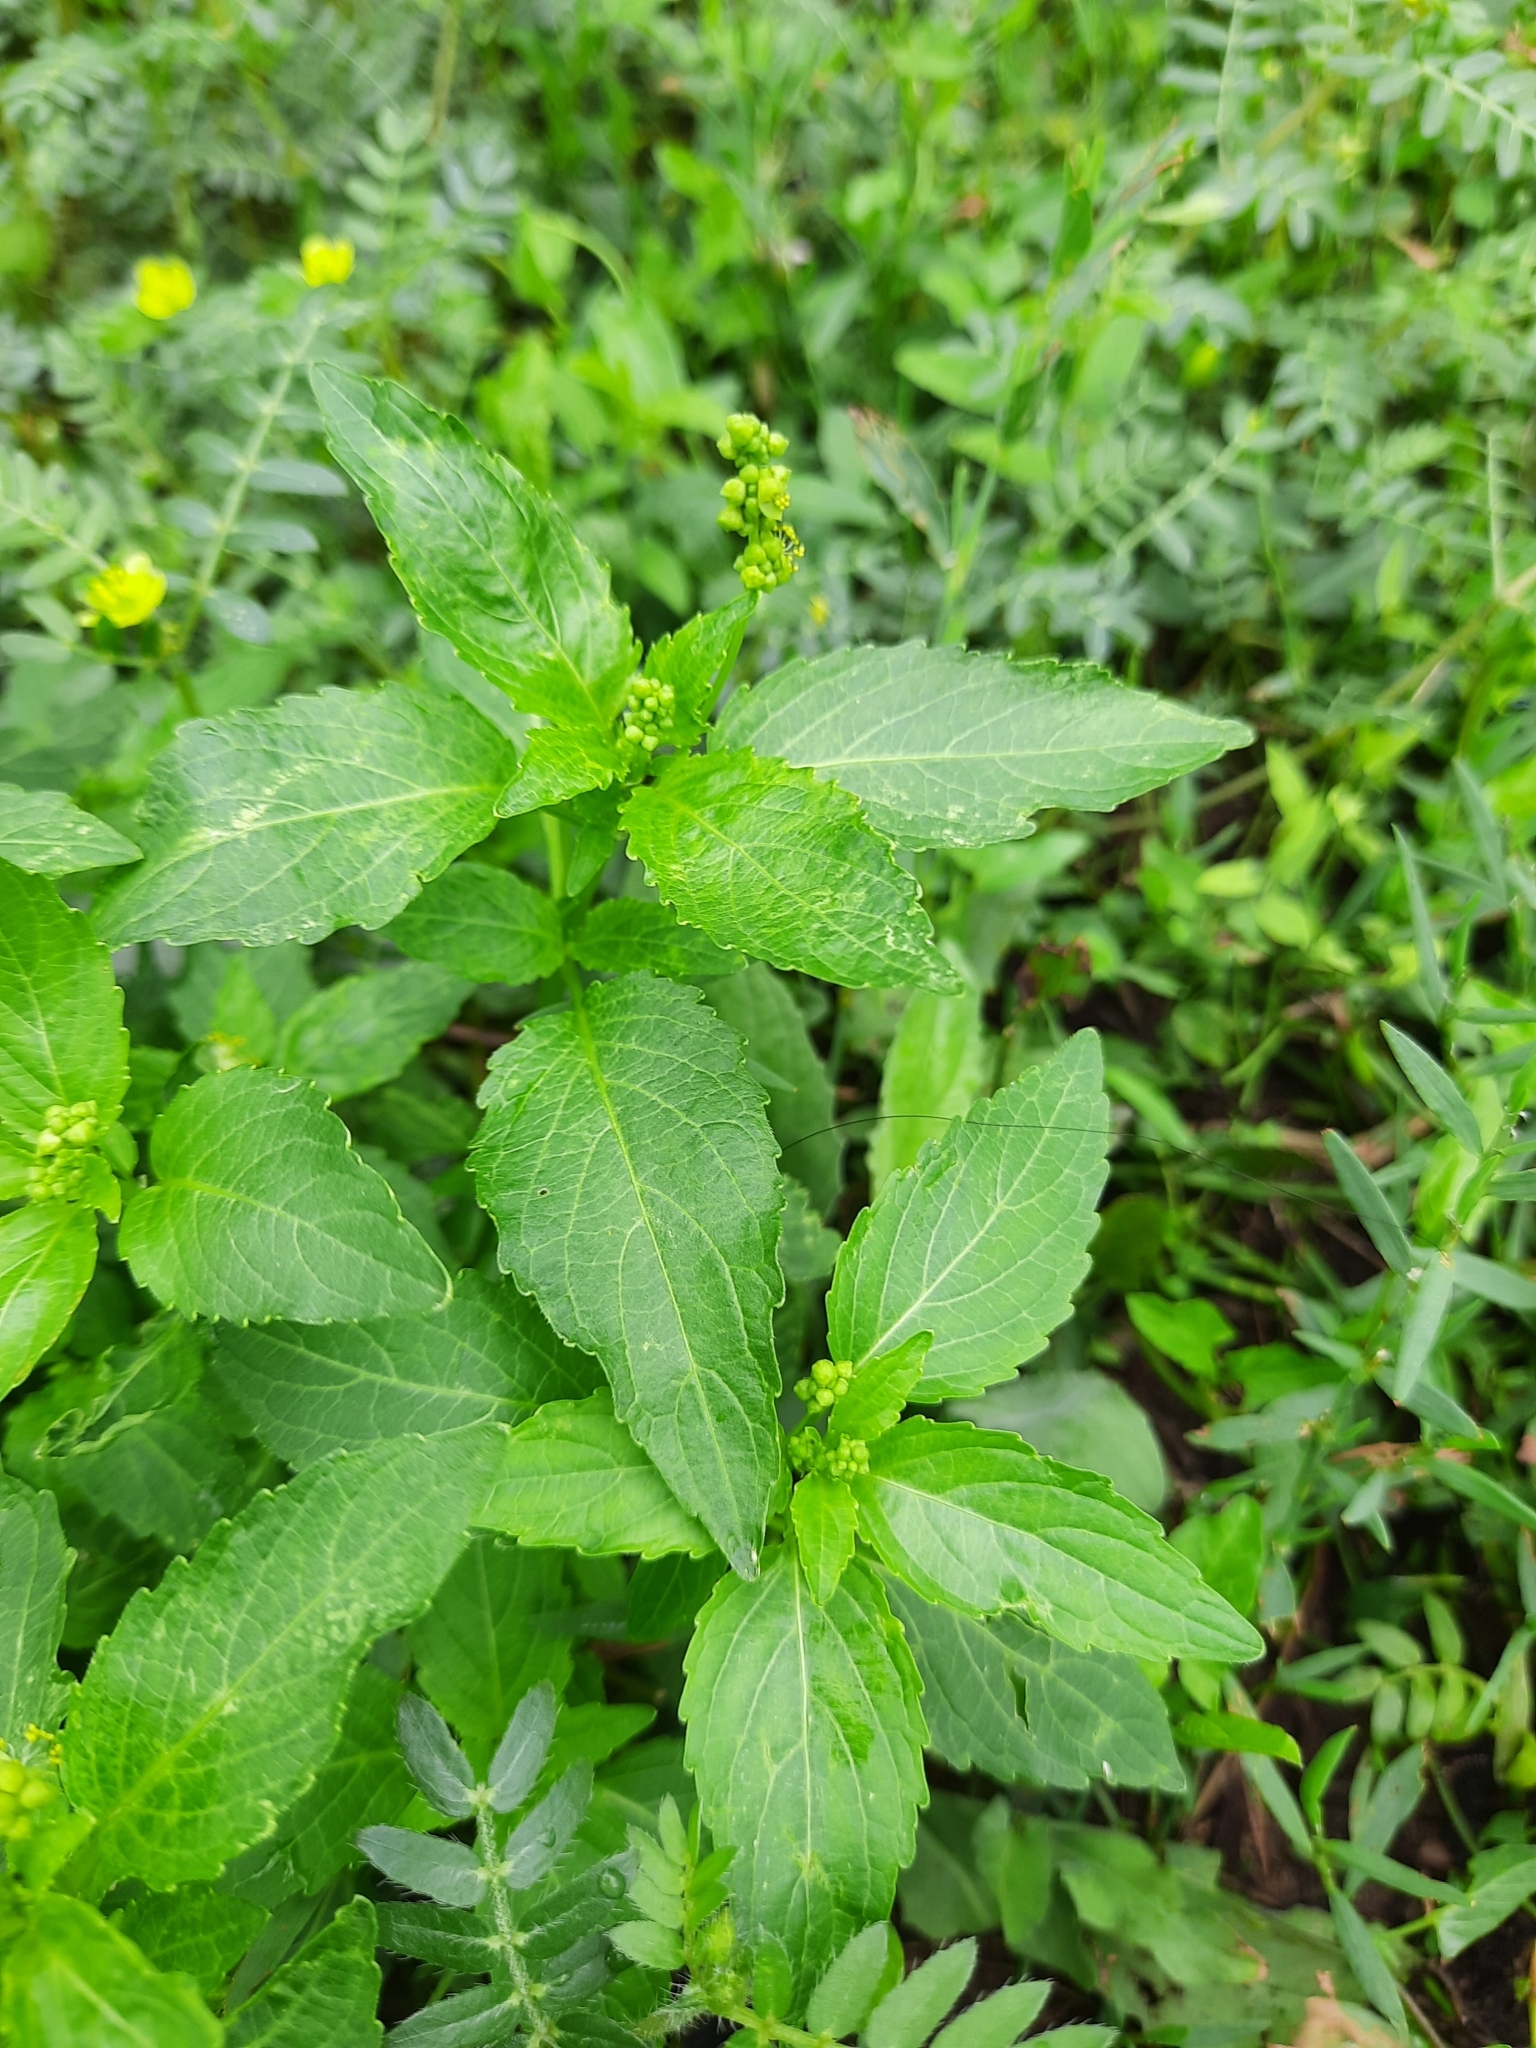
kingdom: Plantae
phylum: Tracheophyta
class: Magnoliopsida
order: Malpighiales
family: Euphorbiaceae
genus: Mercurialis
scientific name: Mercurialis annua
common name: Annual mercury
